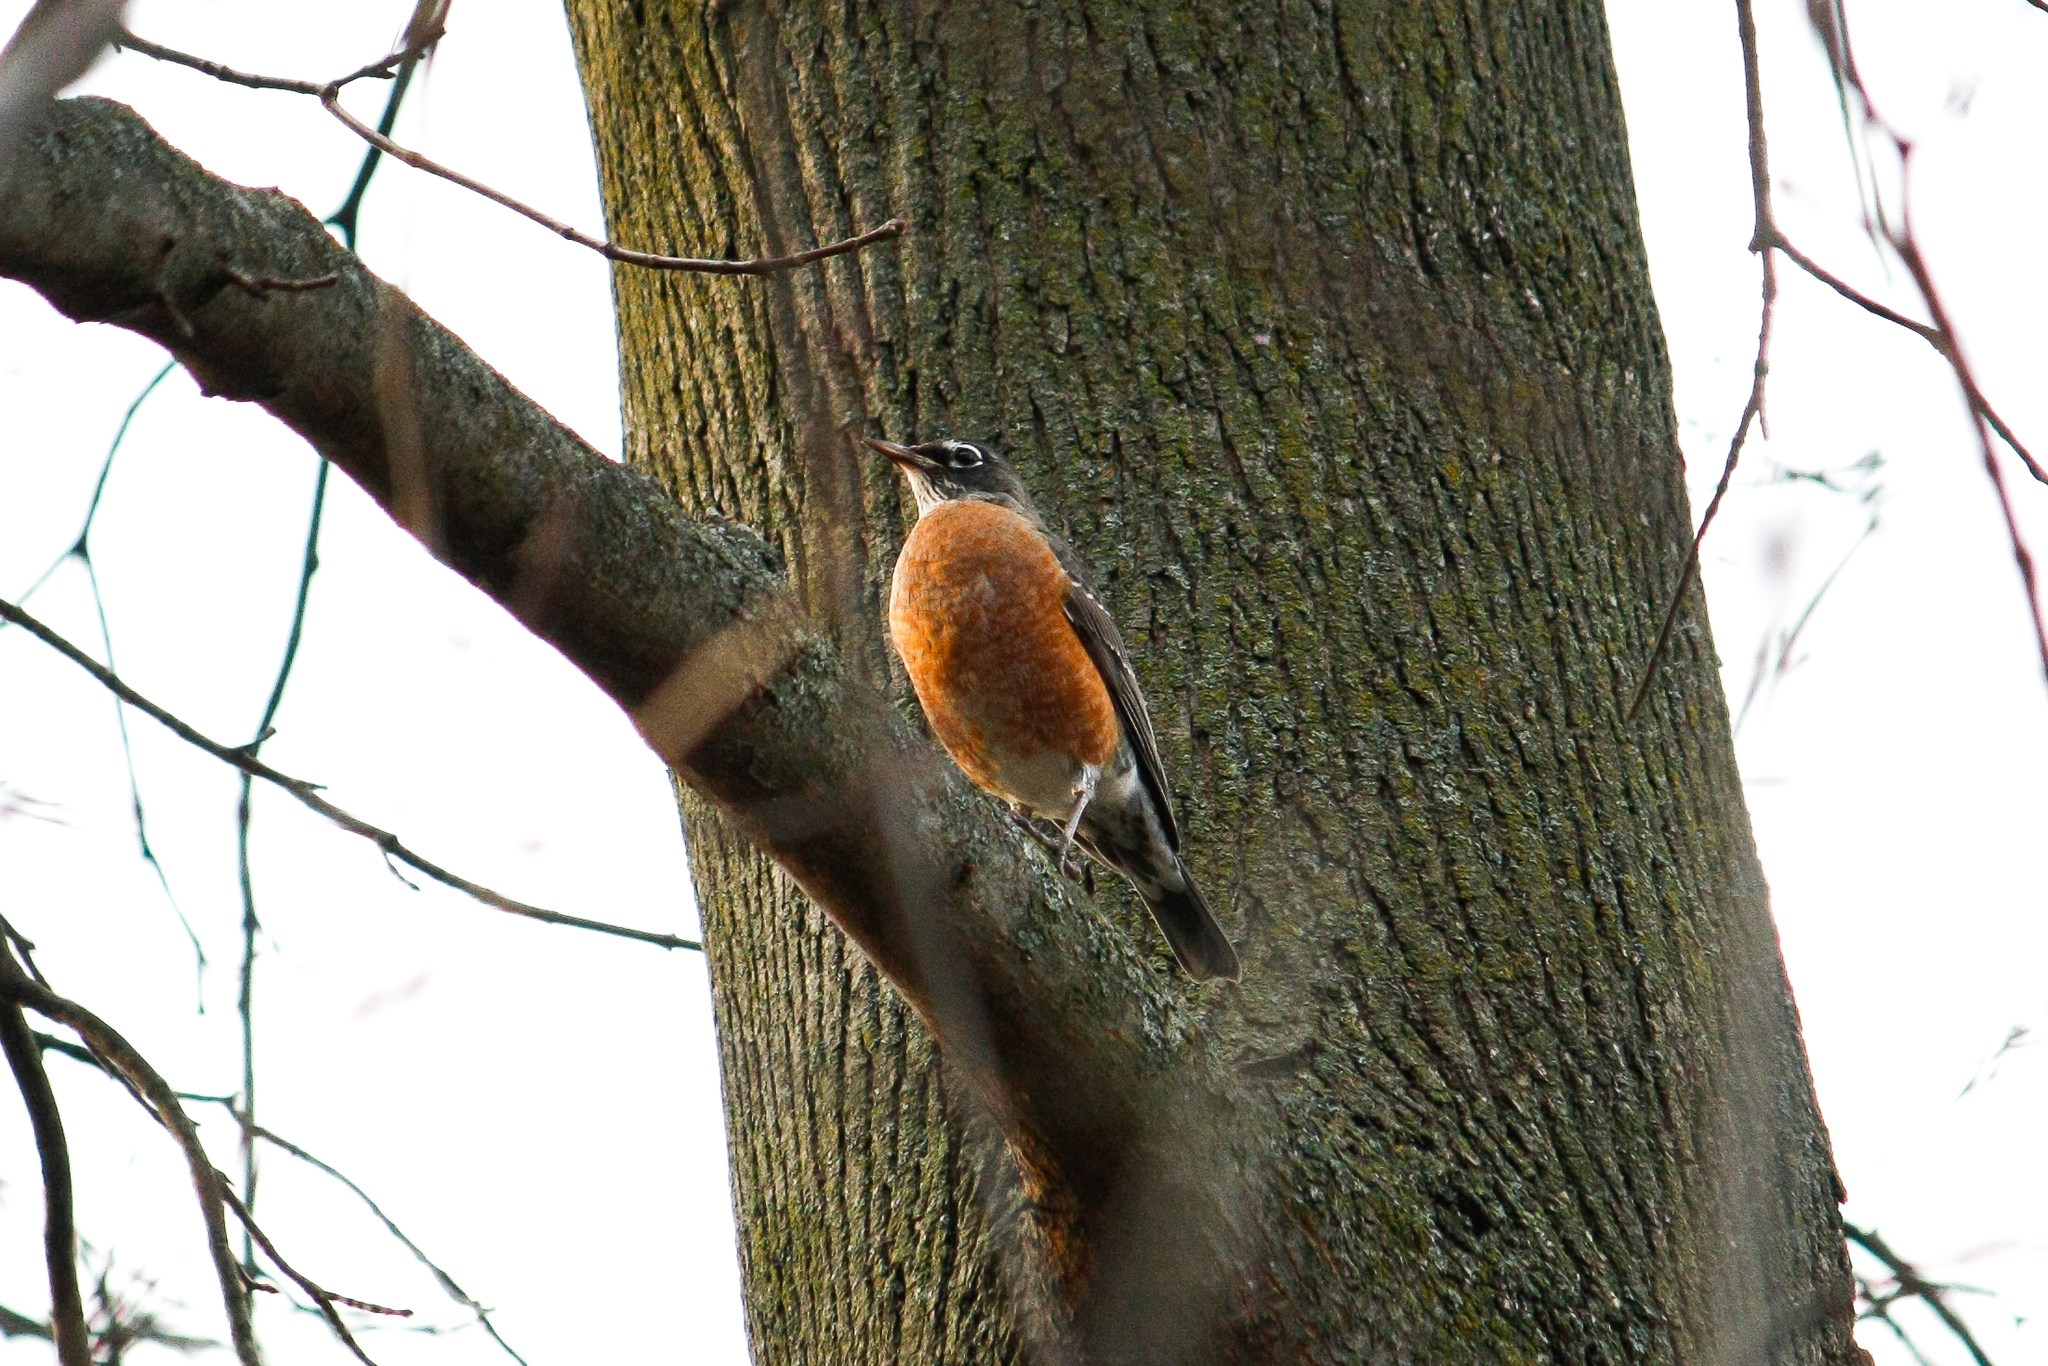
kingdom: Animalia
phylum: Chordata
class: Aves
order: Passeriformes
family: Turdidae
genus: Turdus
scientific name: Turdus migratorius
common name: American robin
